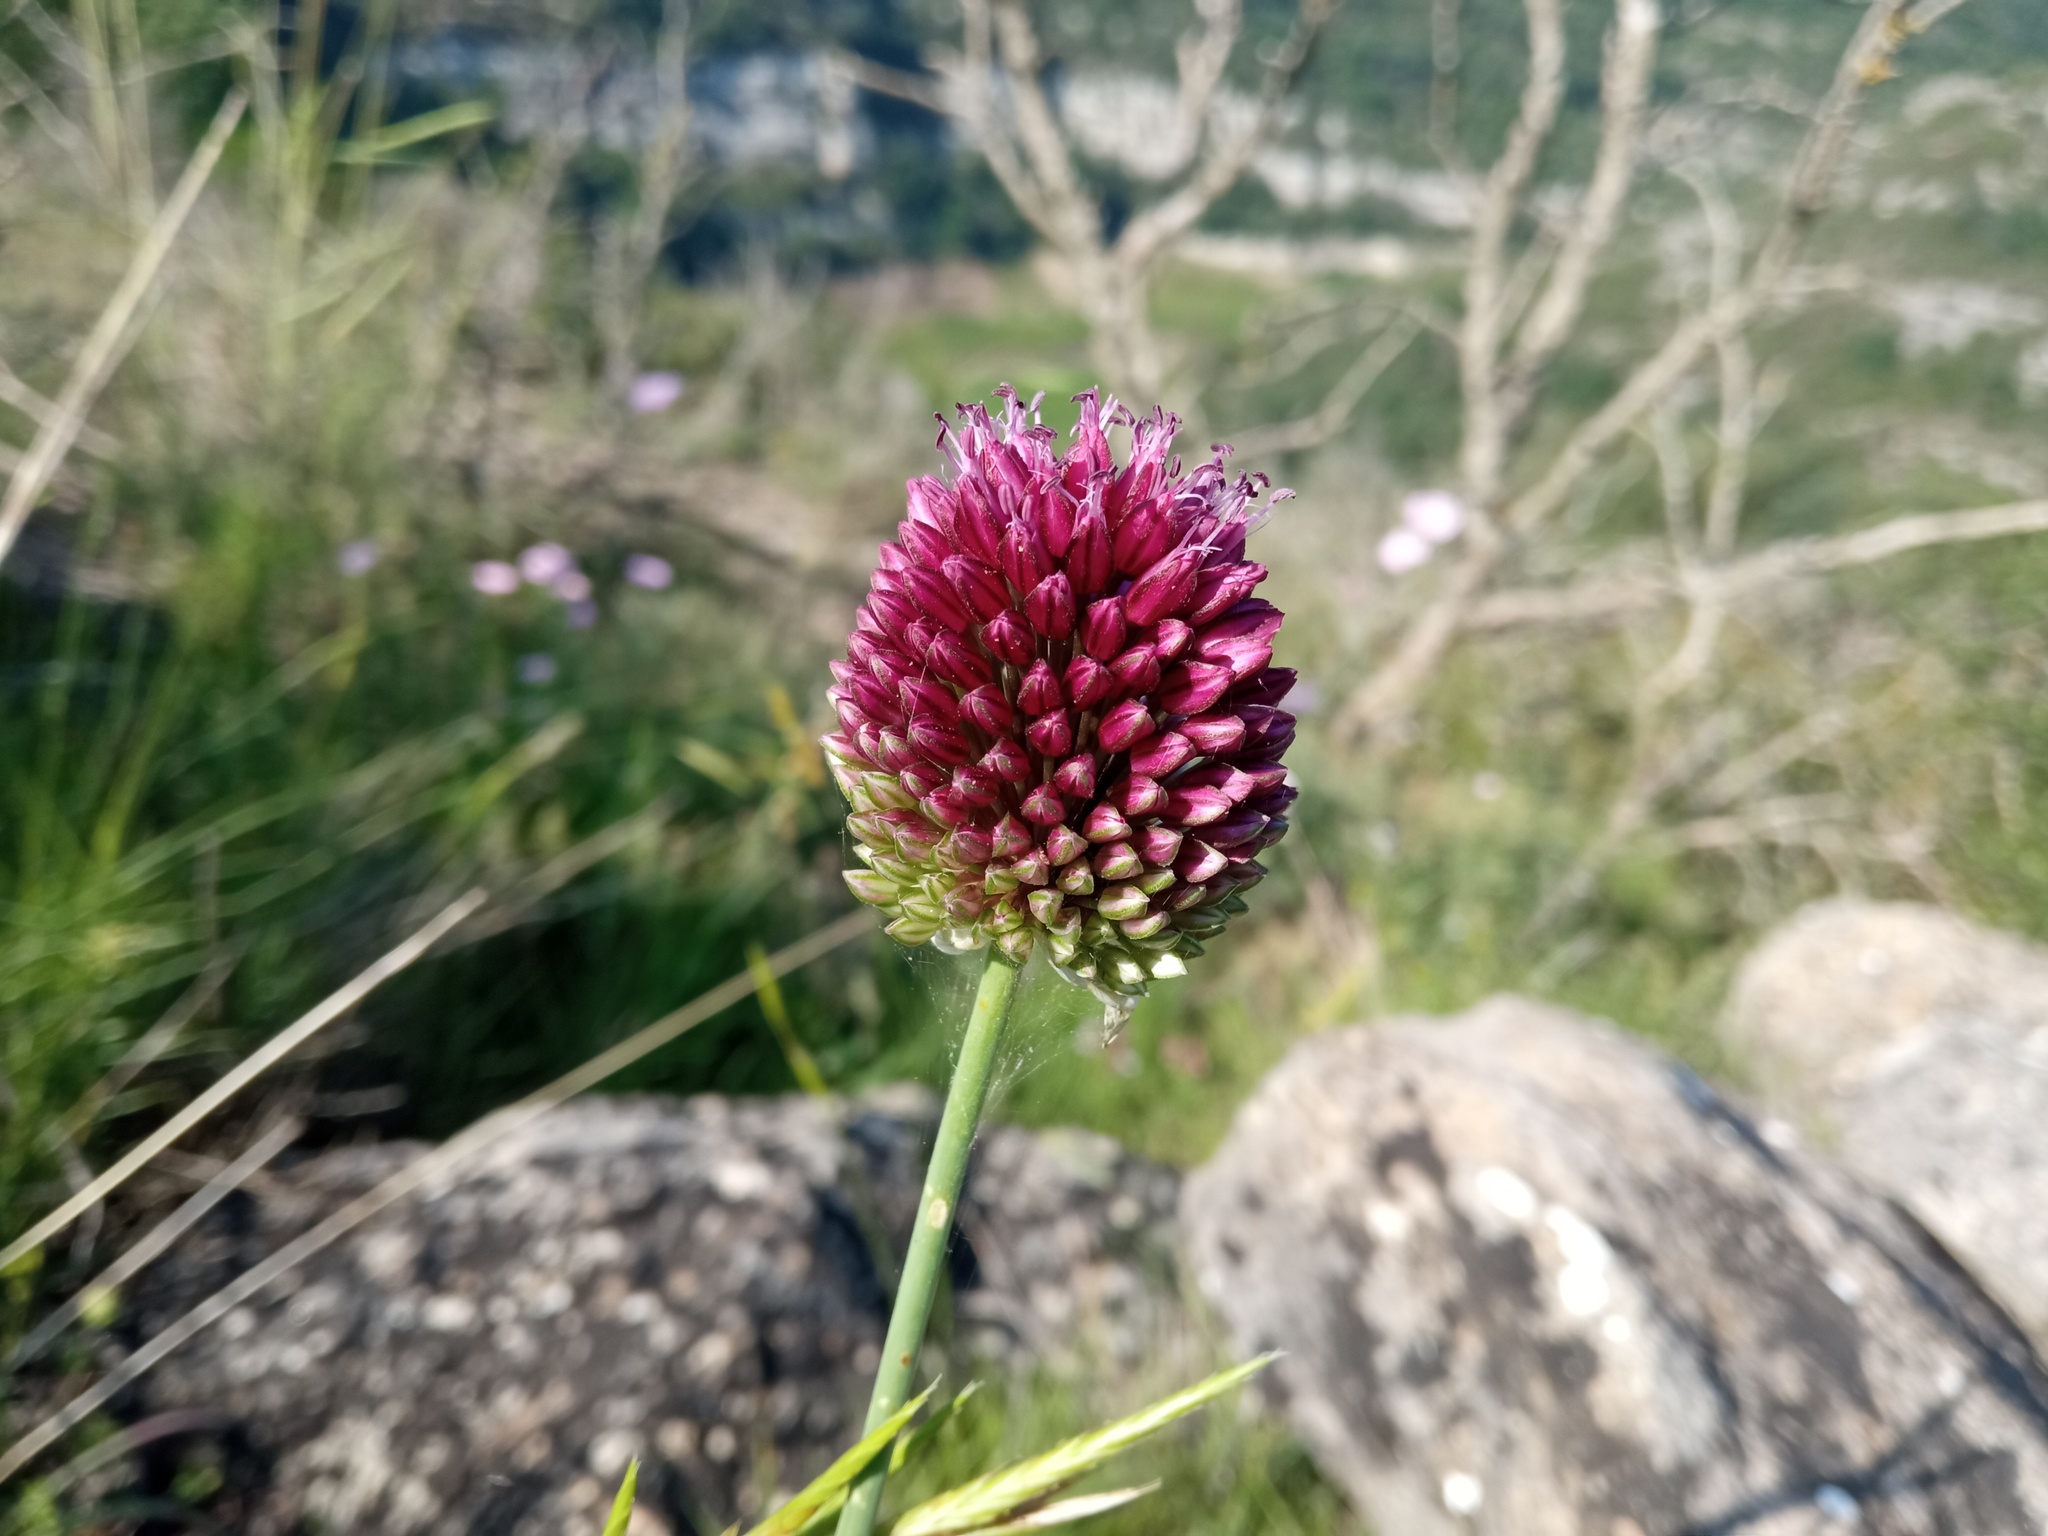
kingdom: Plantae
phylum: Tracheophyta
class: Liliopsida
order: Asparagales
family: Amaryllidaceae
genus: Allium
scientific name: Allium sphaerocephalon
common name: Round-headed leek
